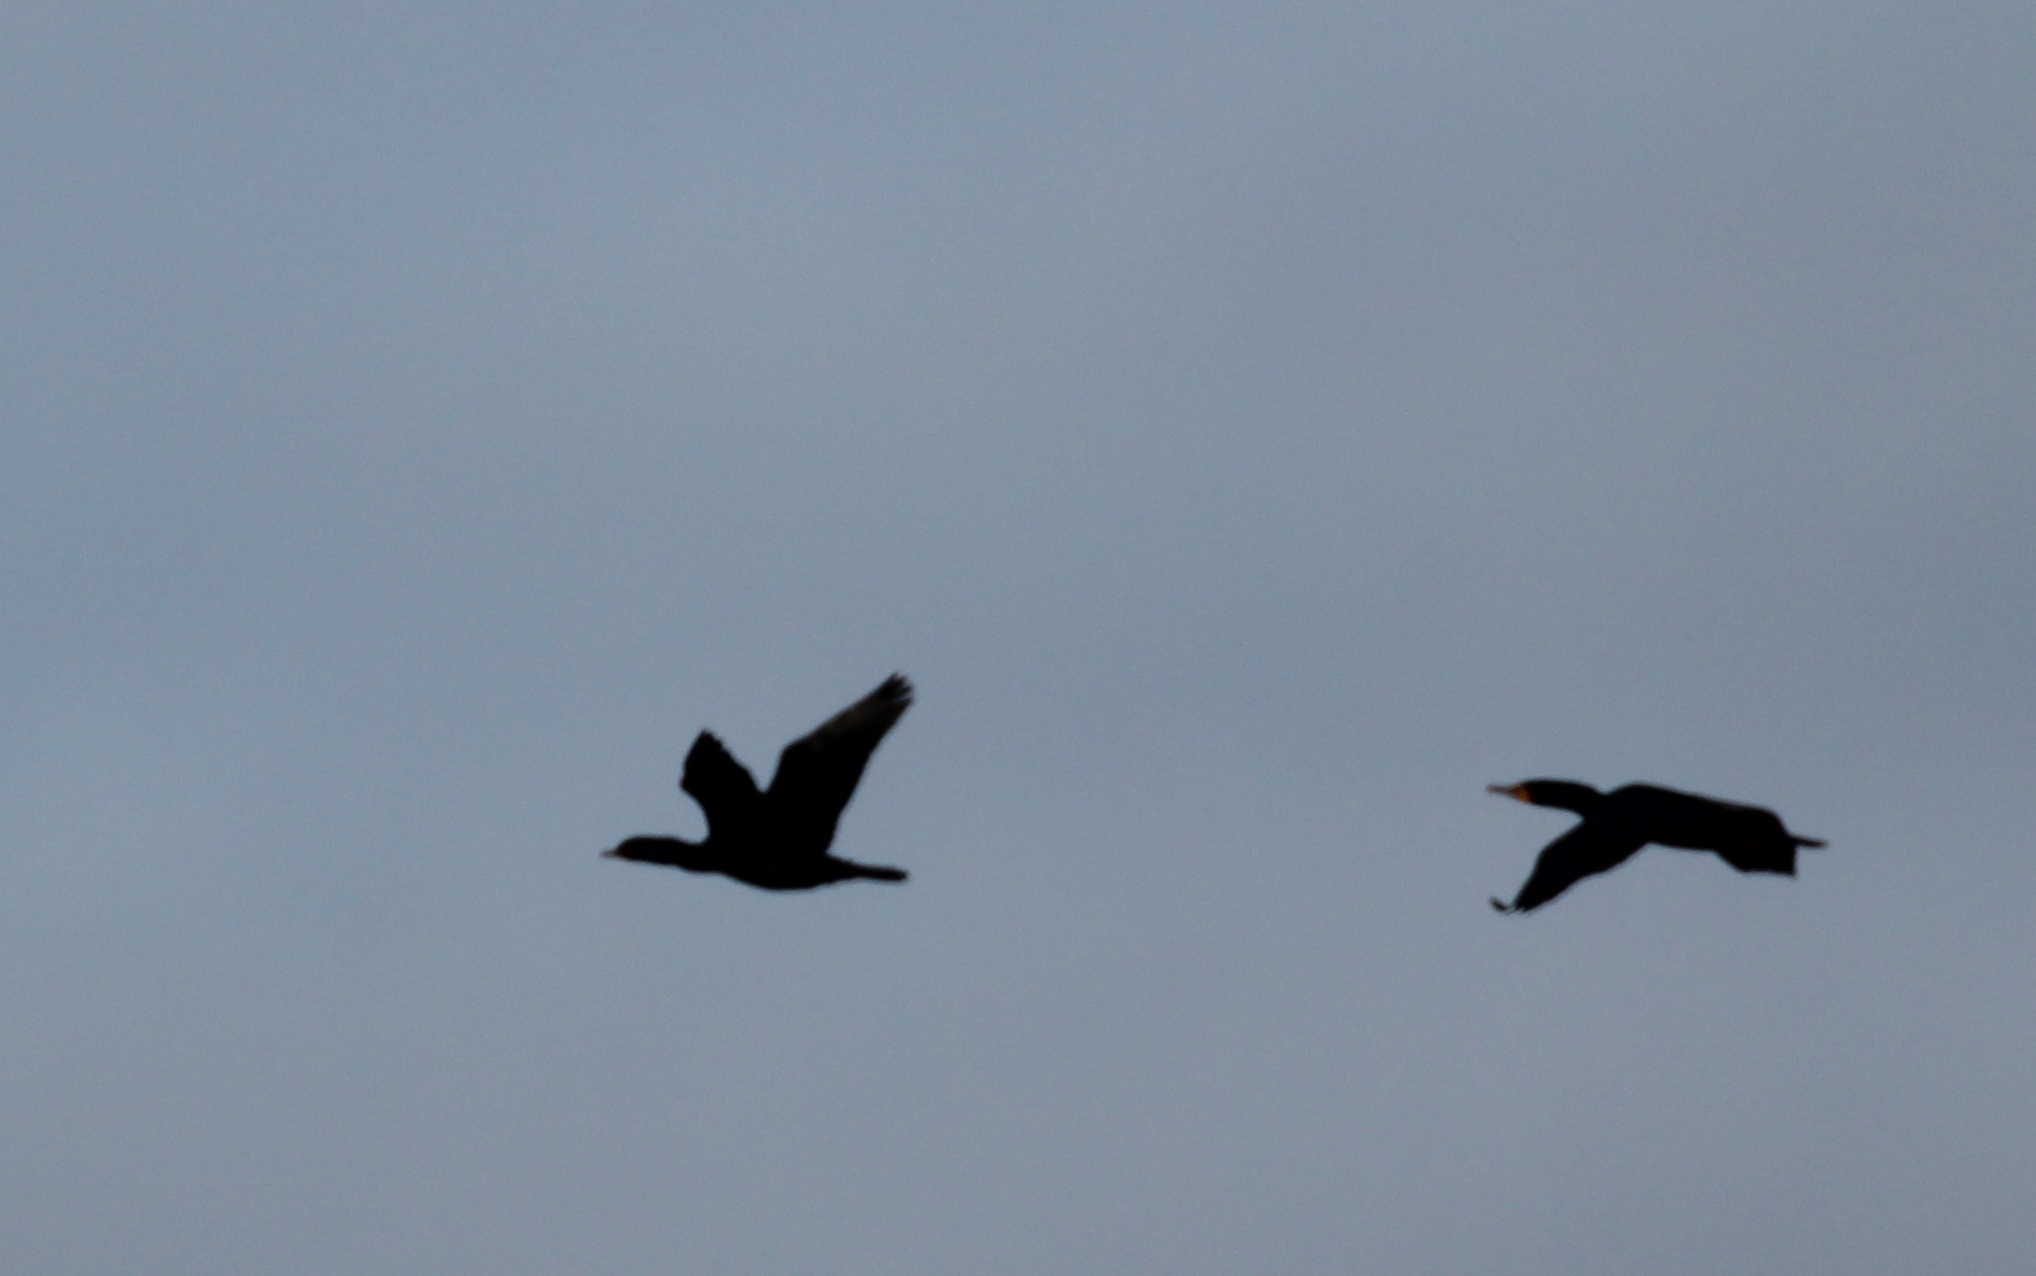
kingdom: Animalia
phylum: Chordata
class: Aves
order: Suliformes
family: Phalacrocoracidae
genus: Phalacrocorax
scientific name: Phalacrocorax auritus
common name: Double-crested cormorant
